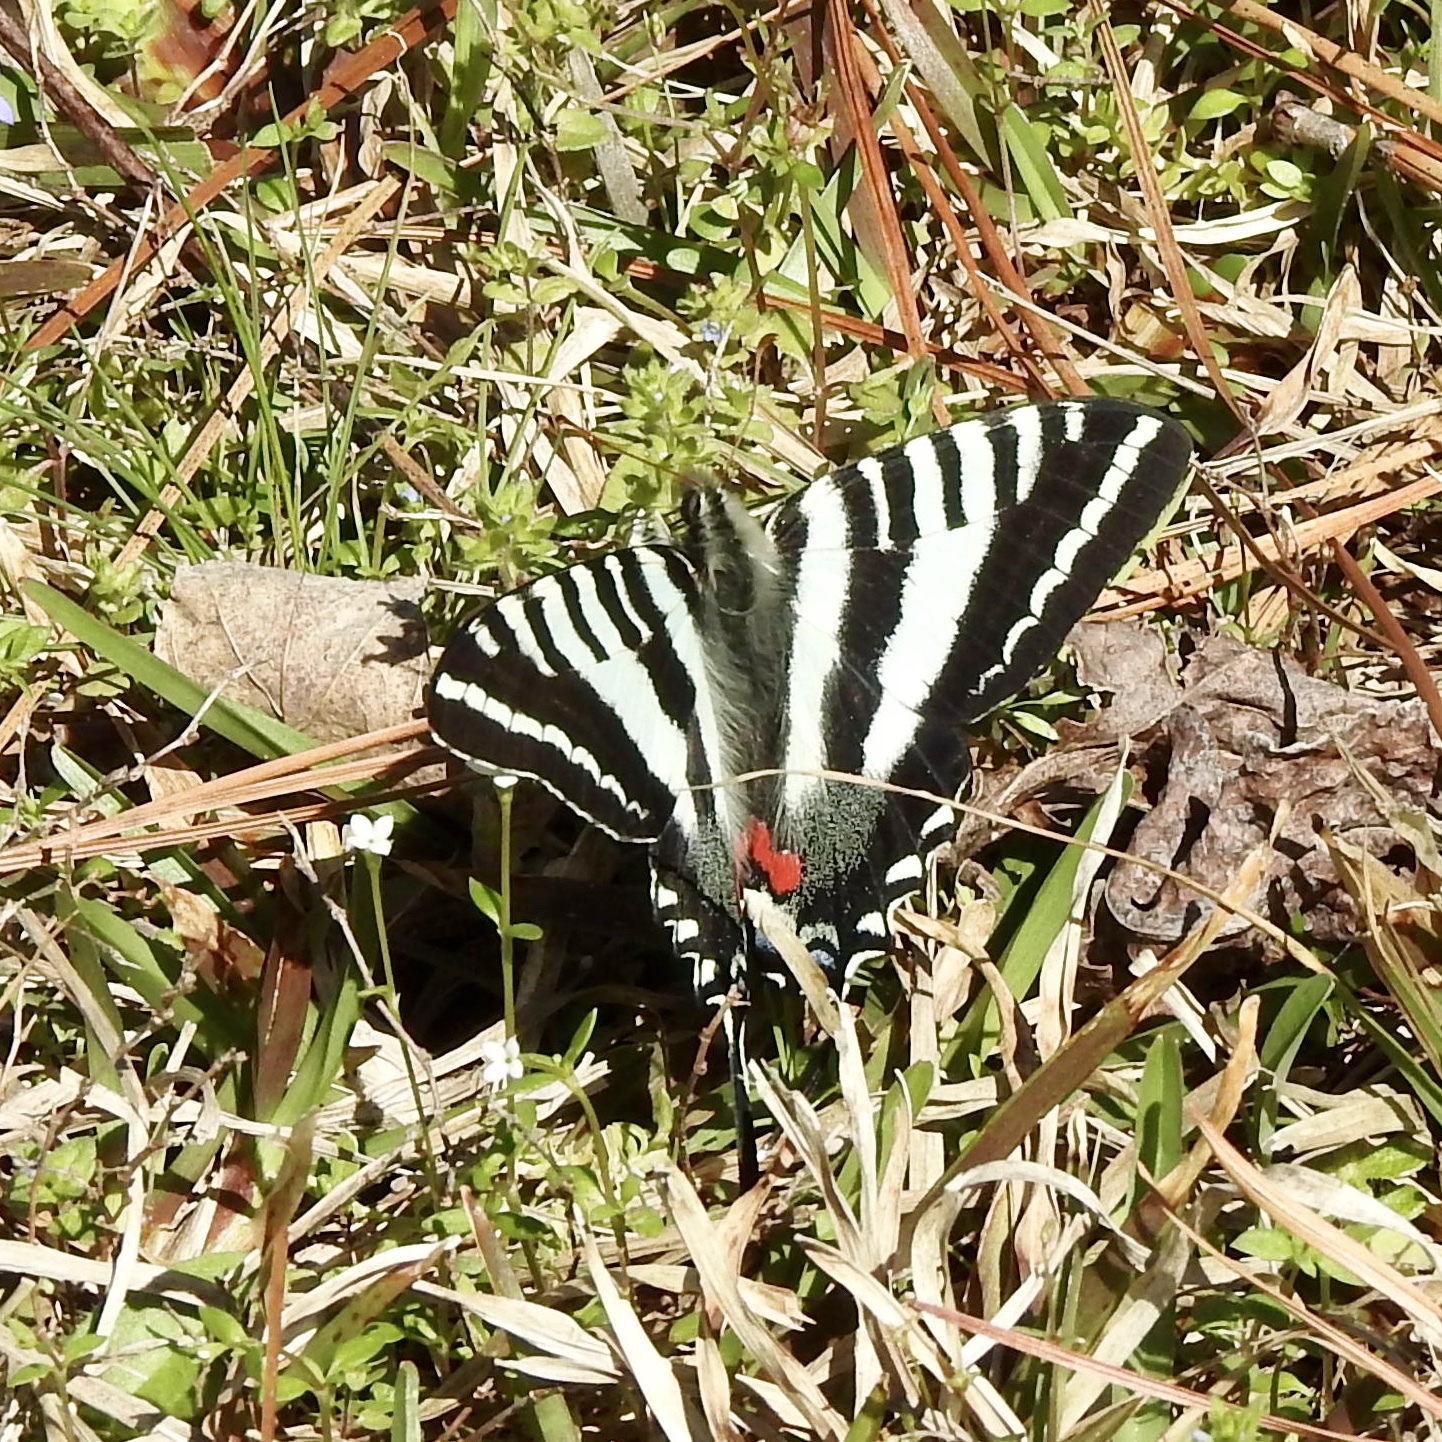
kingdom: Animalia
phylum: Arthropoda
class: Insecta
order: Lepidoptera
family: Papilionidae
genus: Protographium
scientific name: Protographium marcellus
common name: Zebra swallowtail
